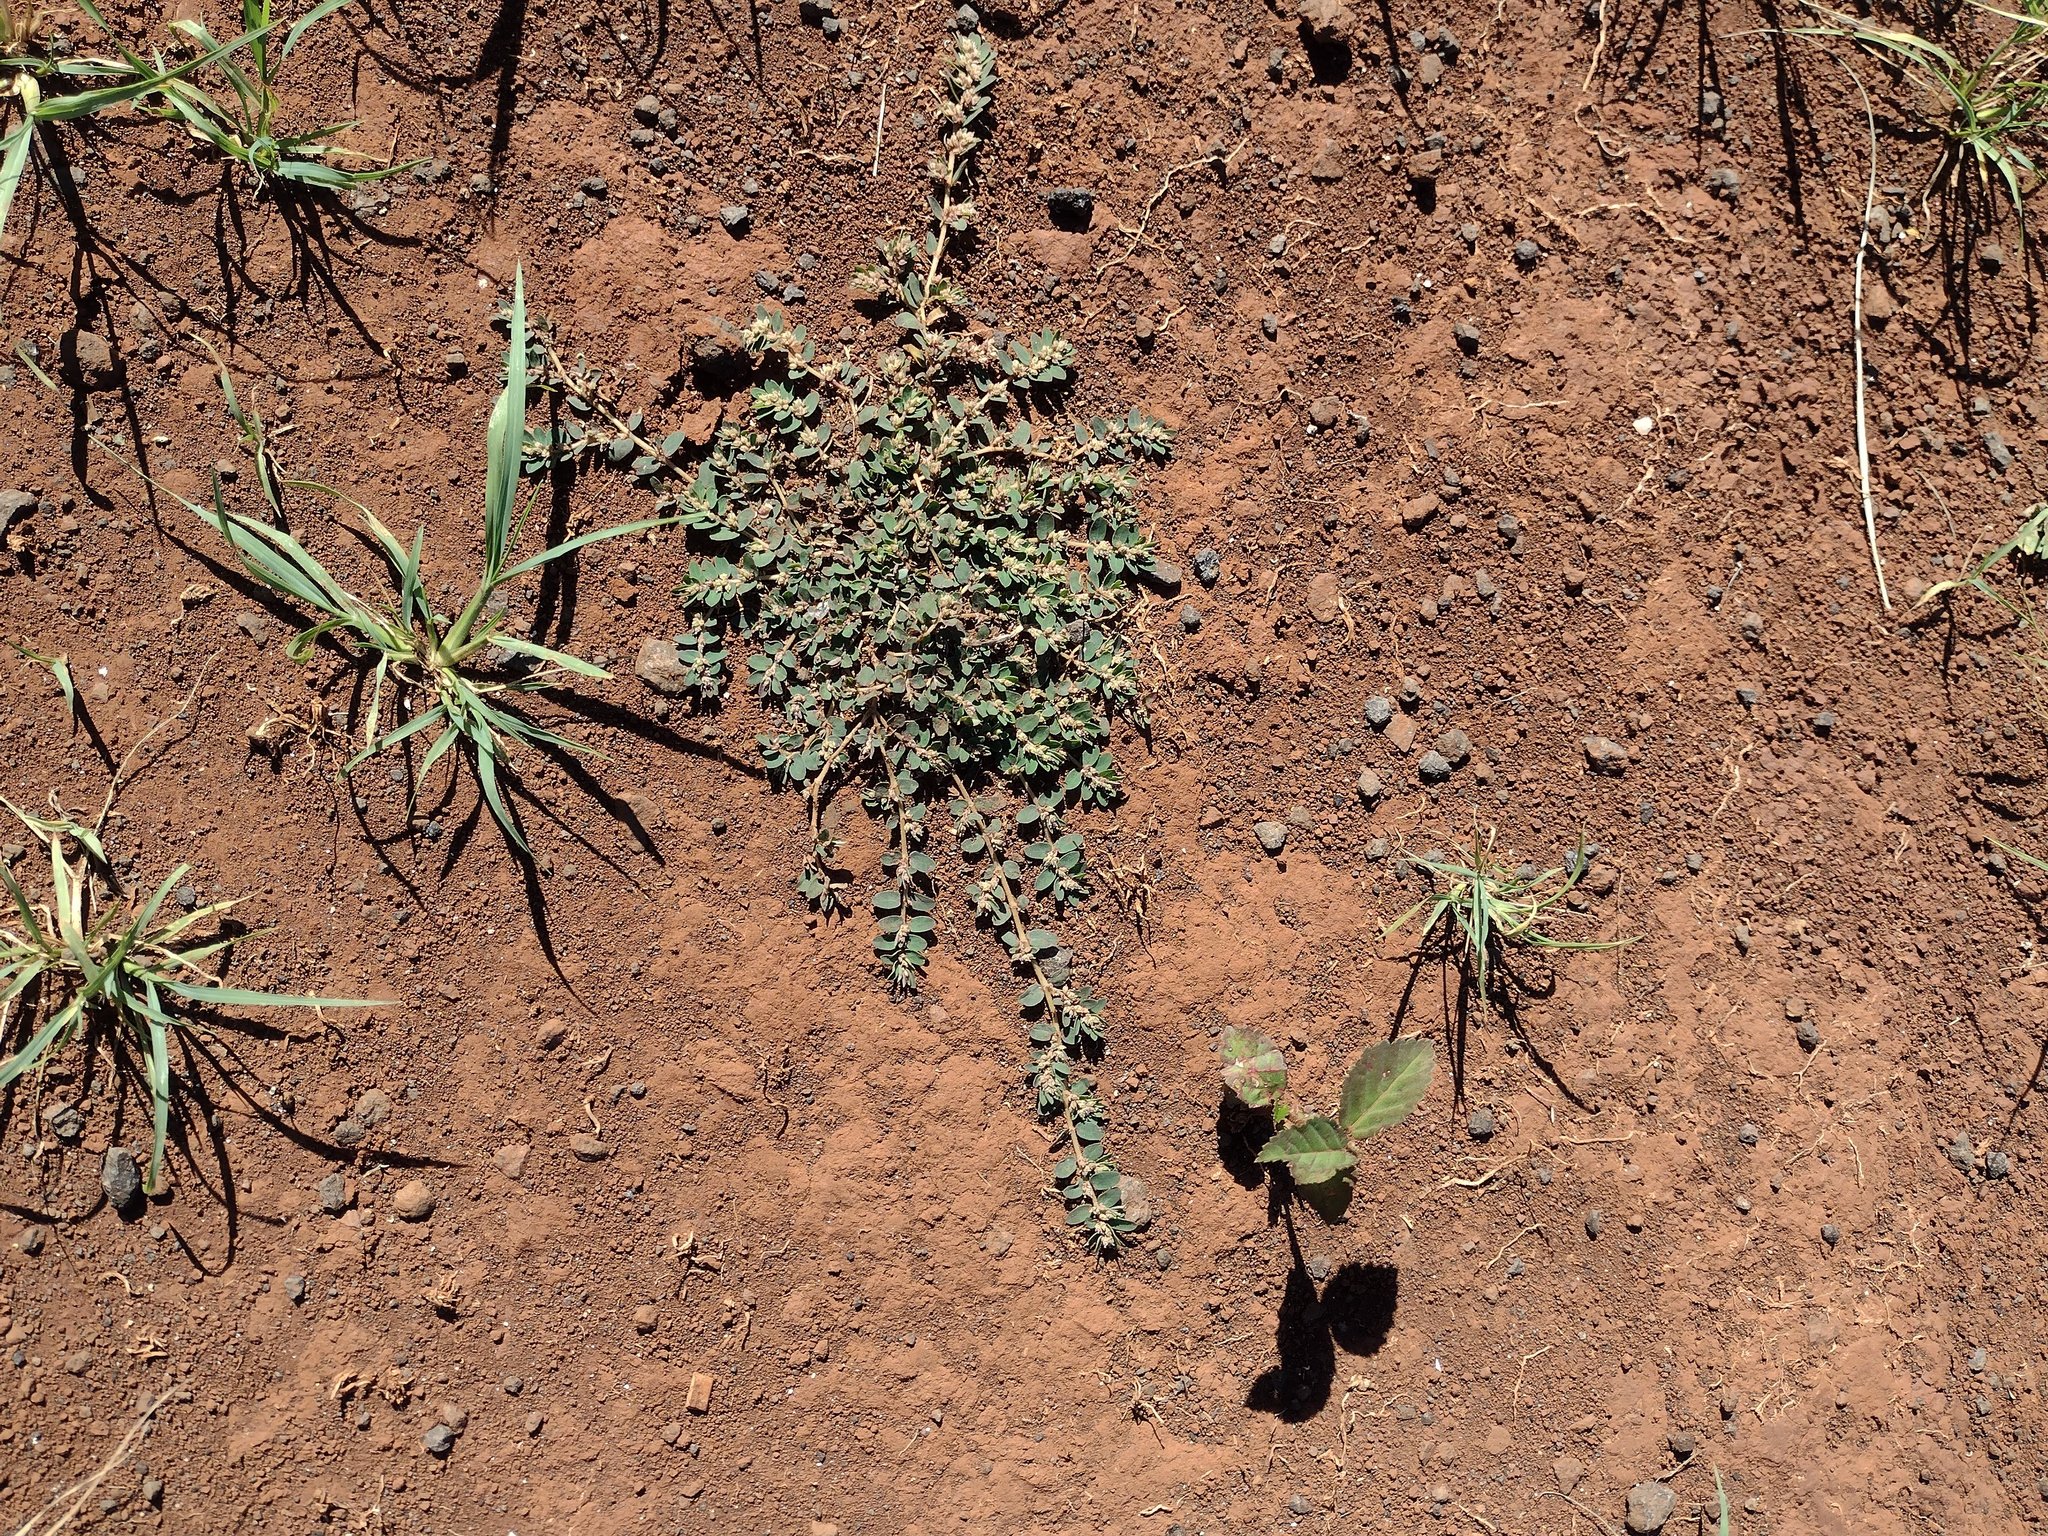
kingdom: Plantae
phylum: Tracheophyta
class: Magnoliopsida
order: Malpighiales
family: Euphorbiaceae
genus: Euphorbia
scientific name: Euphorbia thymifolia
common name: Gulf sandmat
